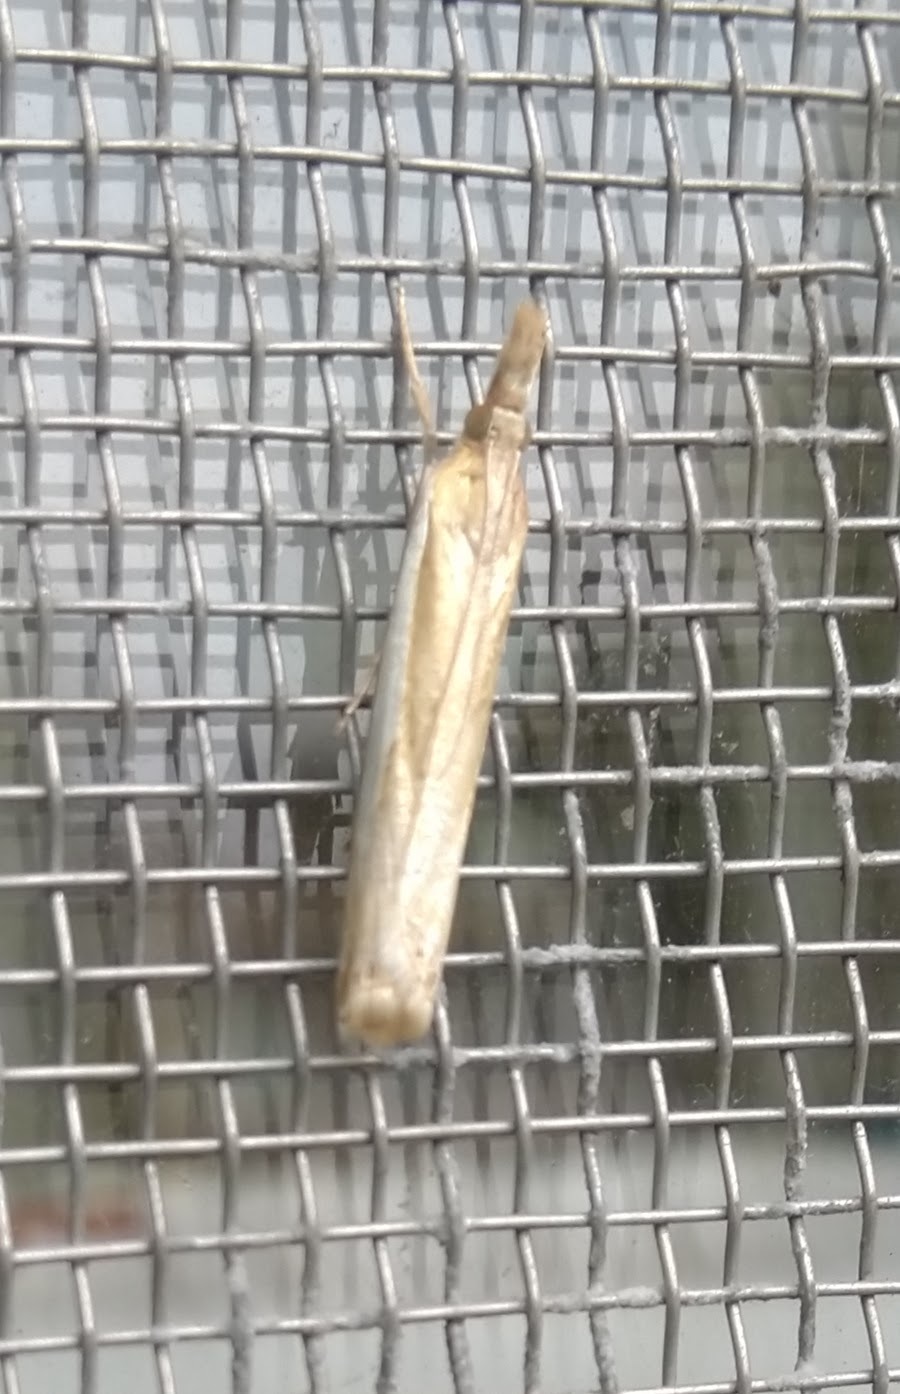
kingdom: Animalia
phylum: Arthropoda
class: Insecta
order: Lepidoptera
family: Crambidae
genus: Crambus
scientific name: Crambus
